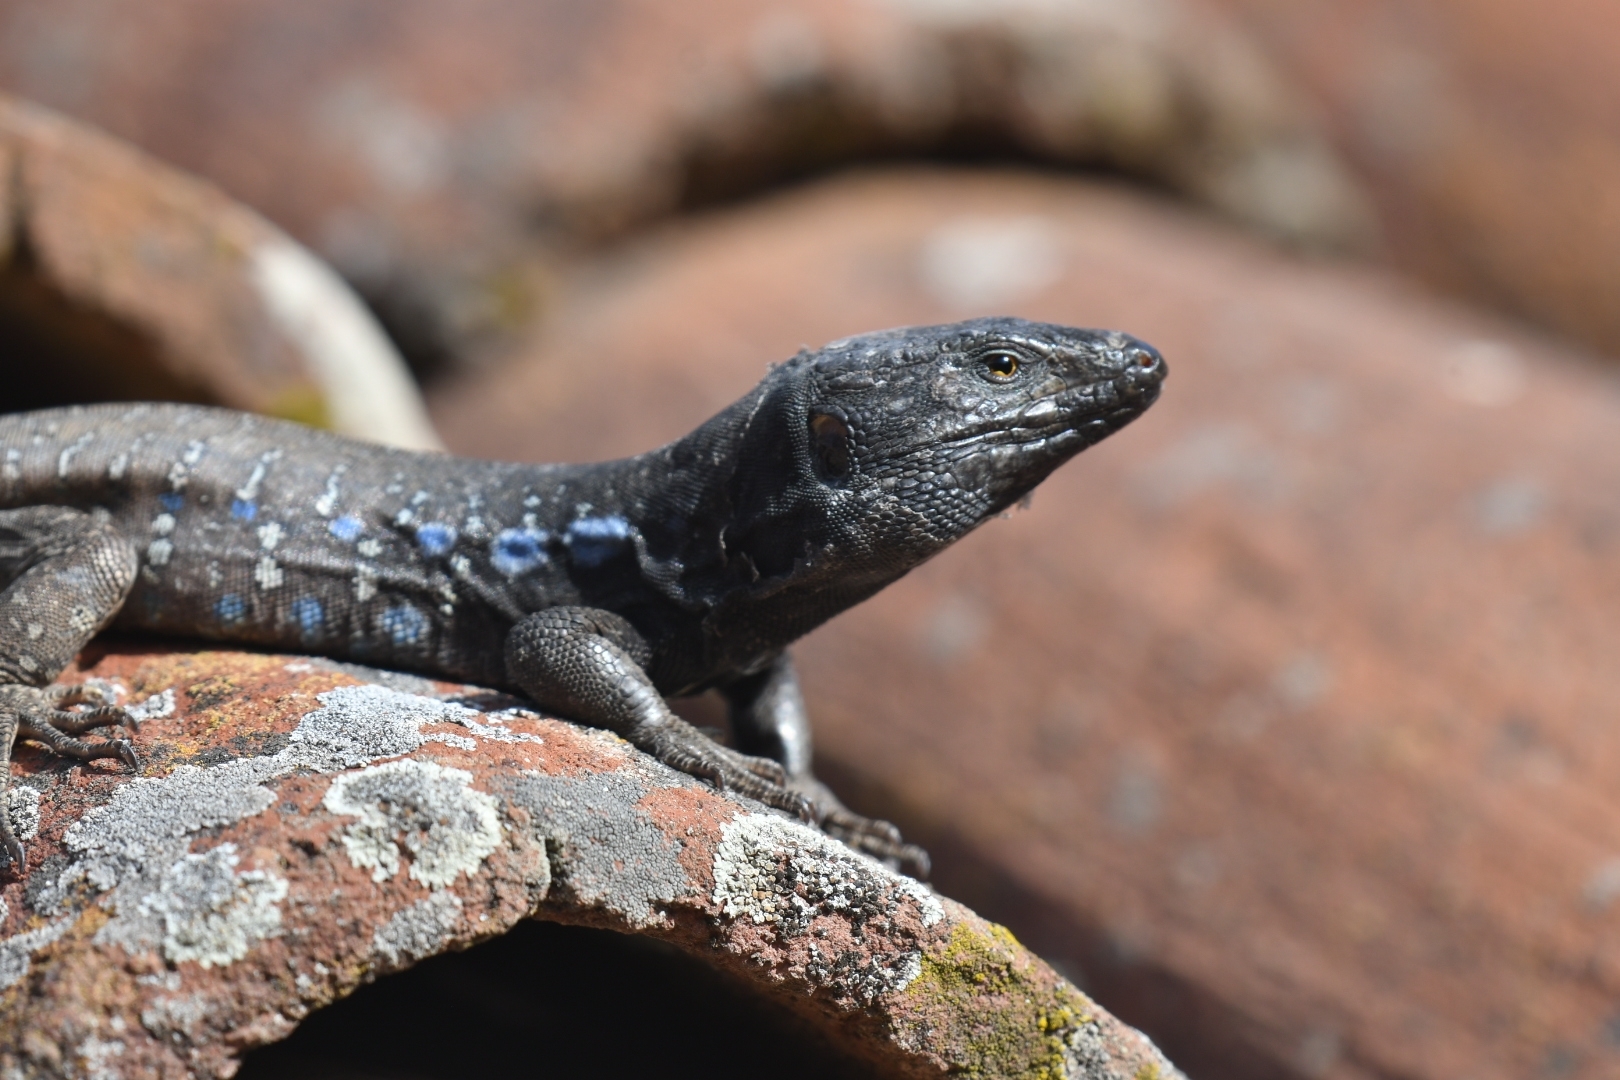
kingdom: Animalia
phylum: Chordata
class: Squamata
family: Lacertidae
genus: Gallotia
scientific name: Gallotia galloti
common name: Gallot's lizard
